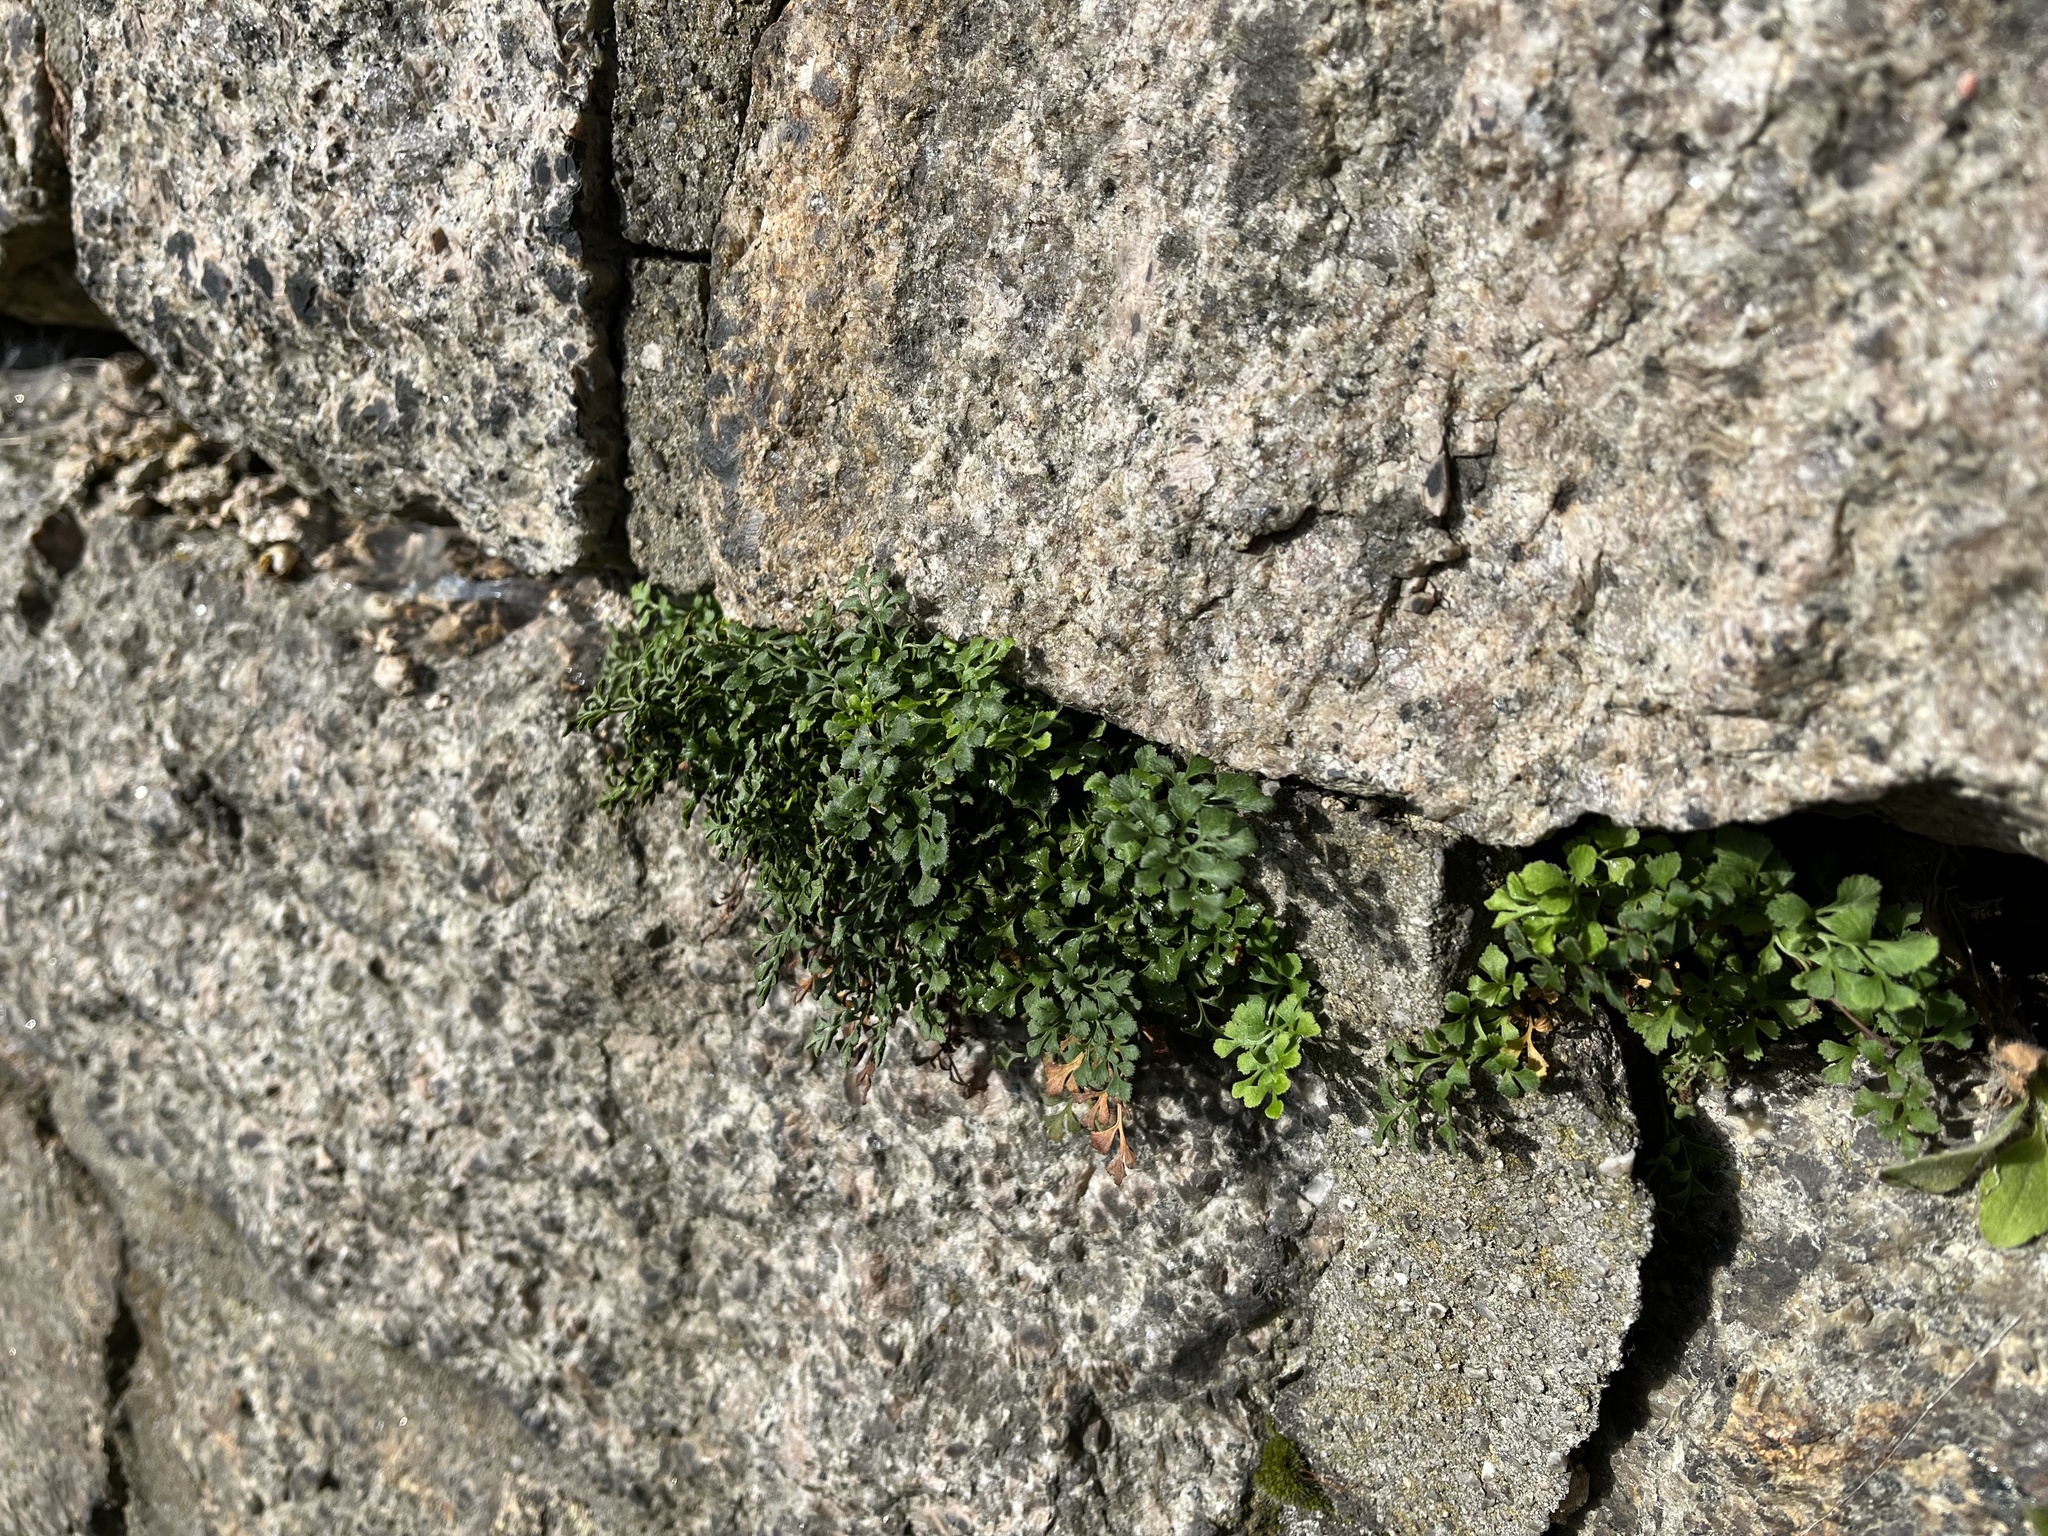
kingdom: Plantae
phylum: Tracheophyta
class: Polypodiopsida
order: Polypodiales
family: Aspleniaceae
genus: Asplenium
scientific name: Asplenium ruta-muraria
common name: Wall-rue
